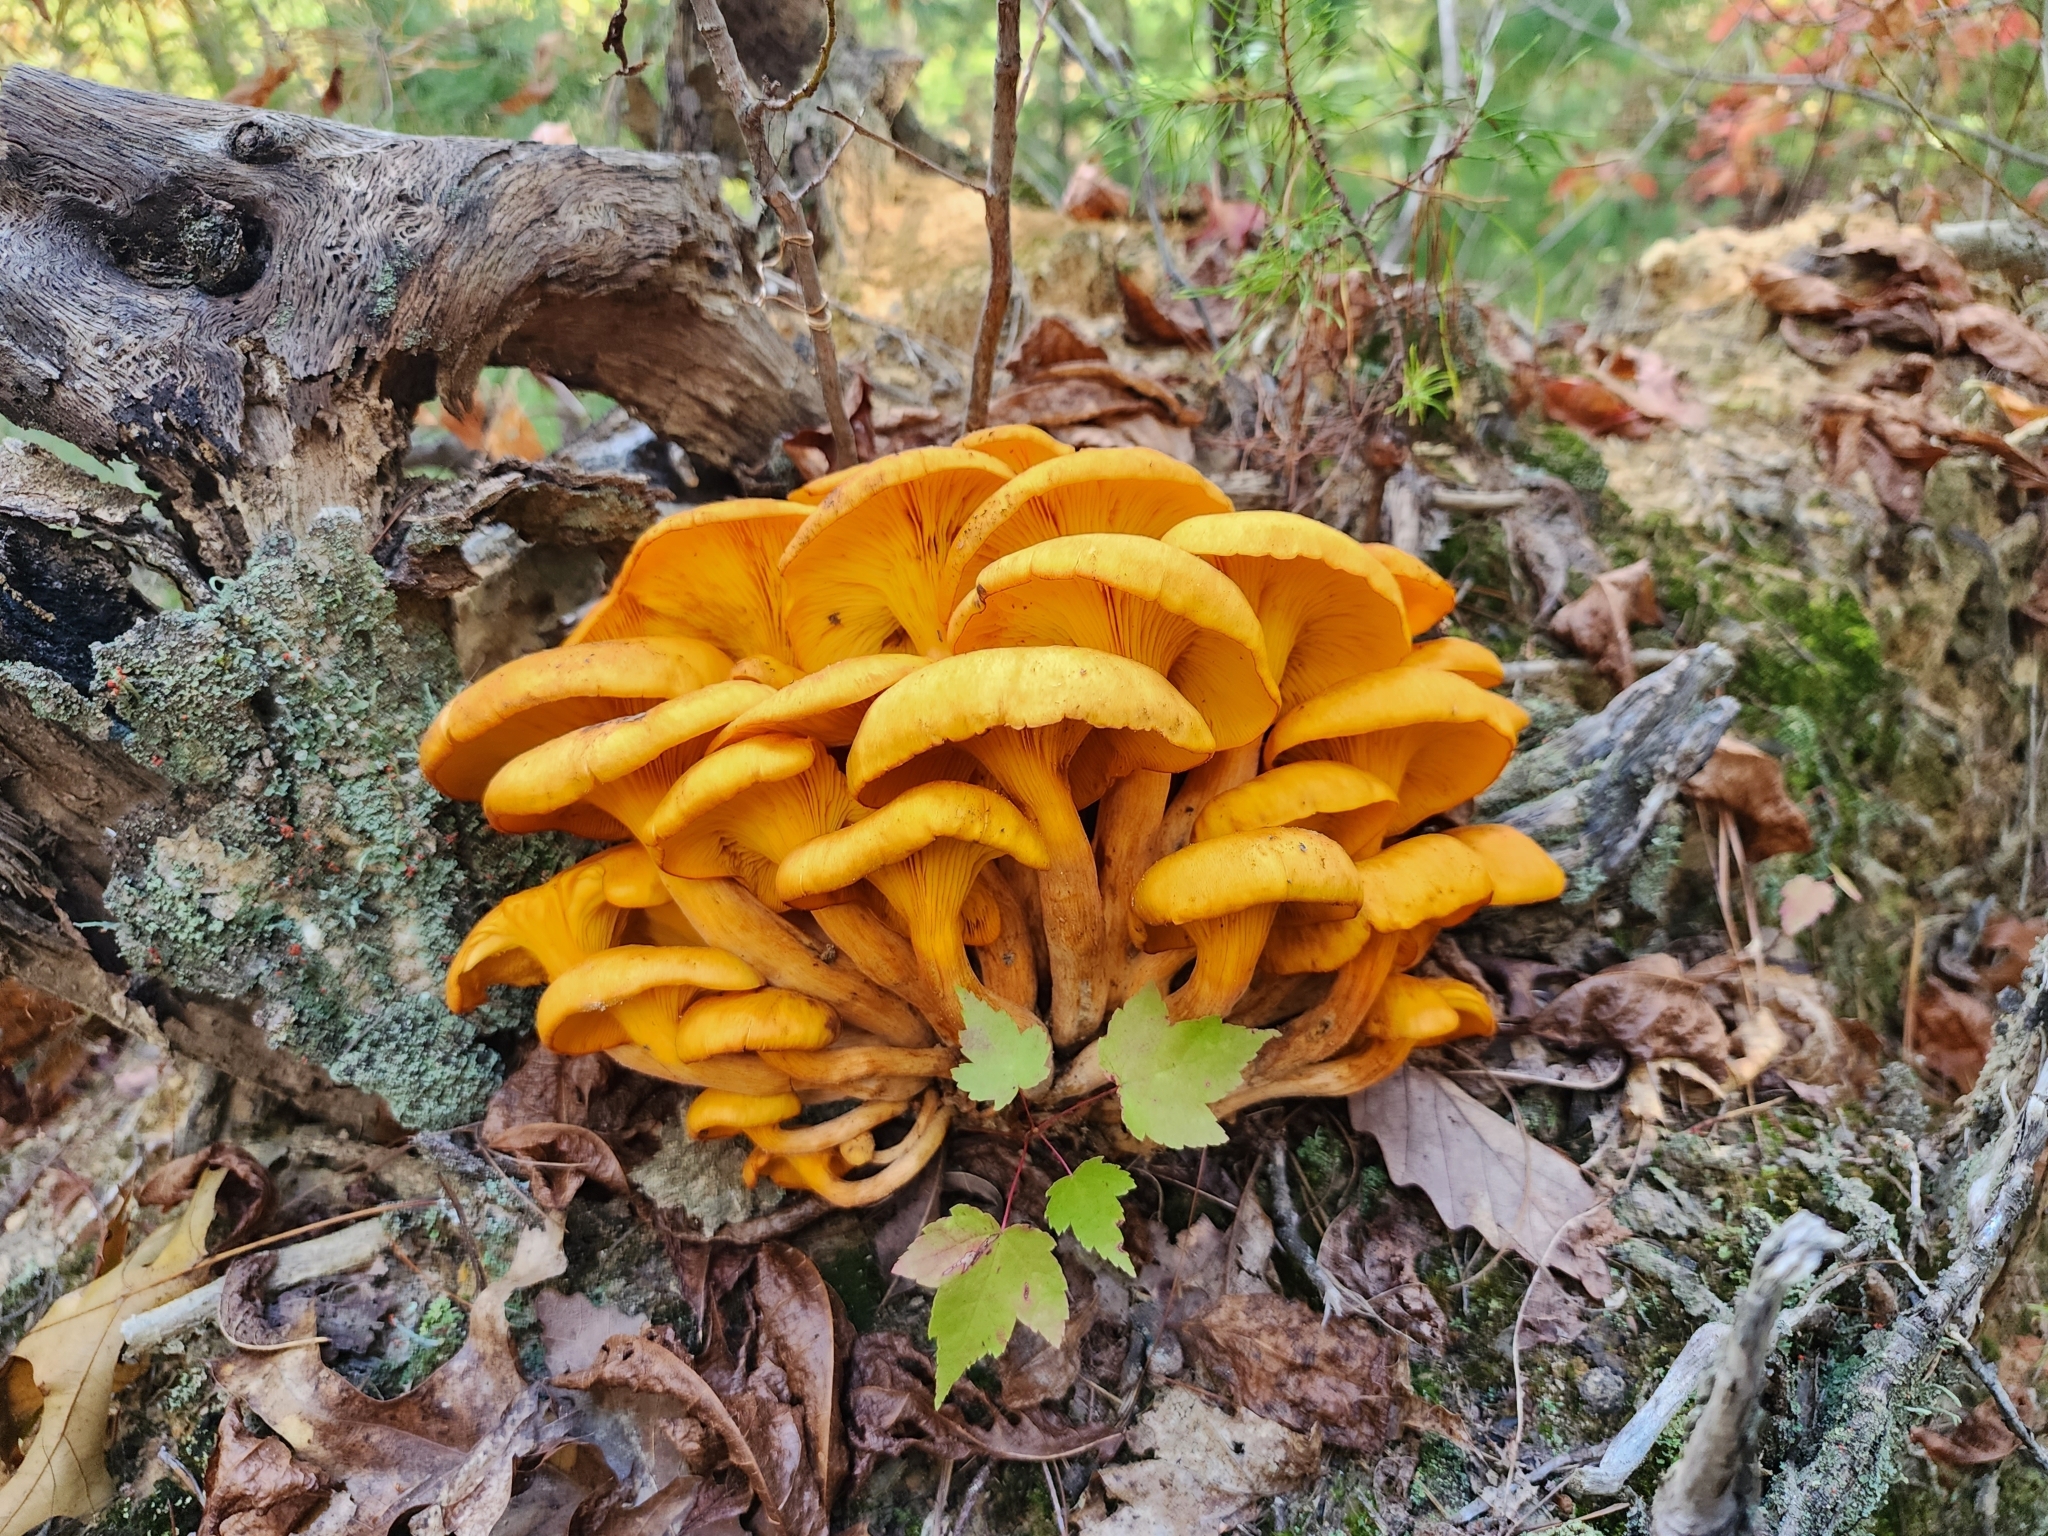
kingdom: Fungi
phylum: Basidiomycota
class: Agaricomycetes
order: Agaricales
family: Omphalotaceae
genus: Omphalotus
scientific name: Omphalotus illudens
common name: Jack o lantern
